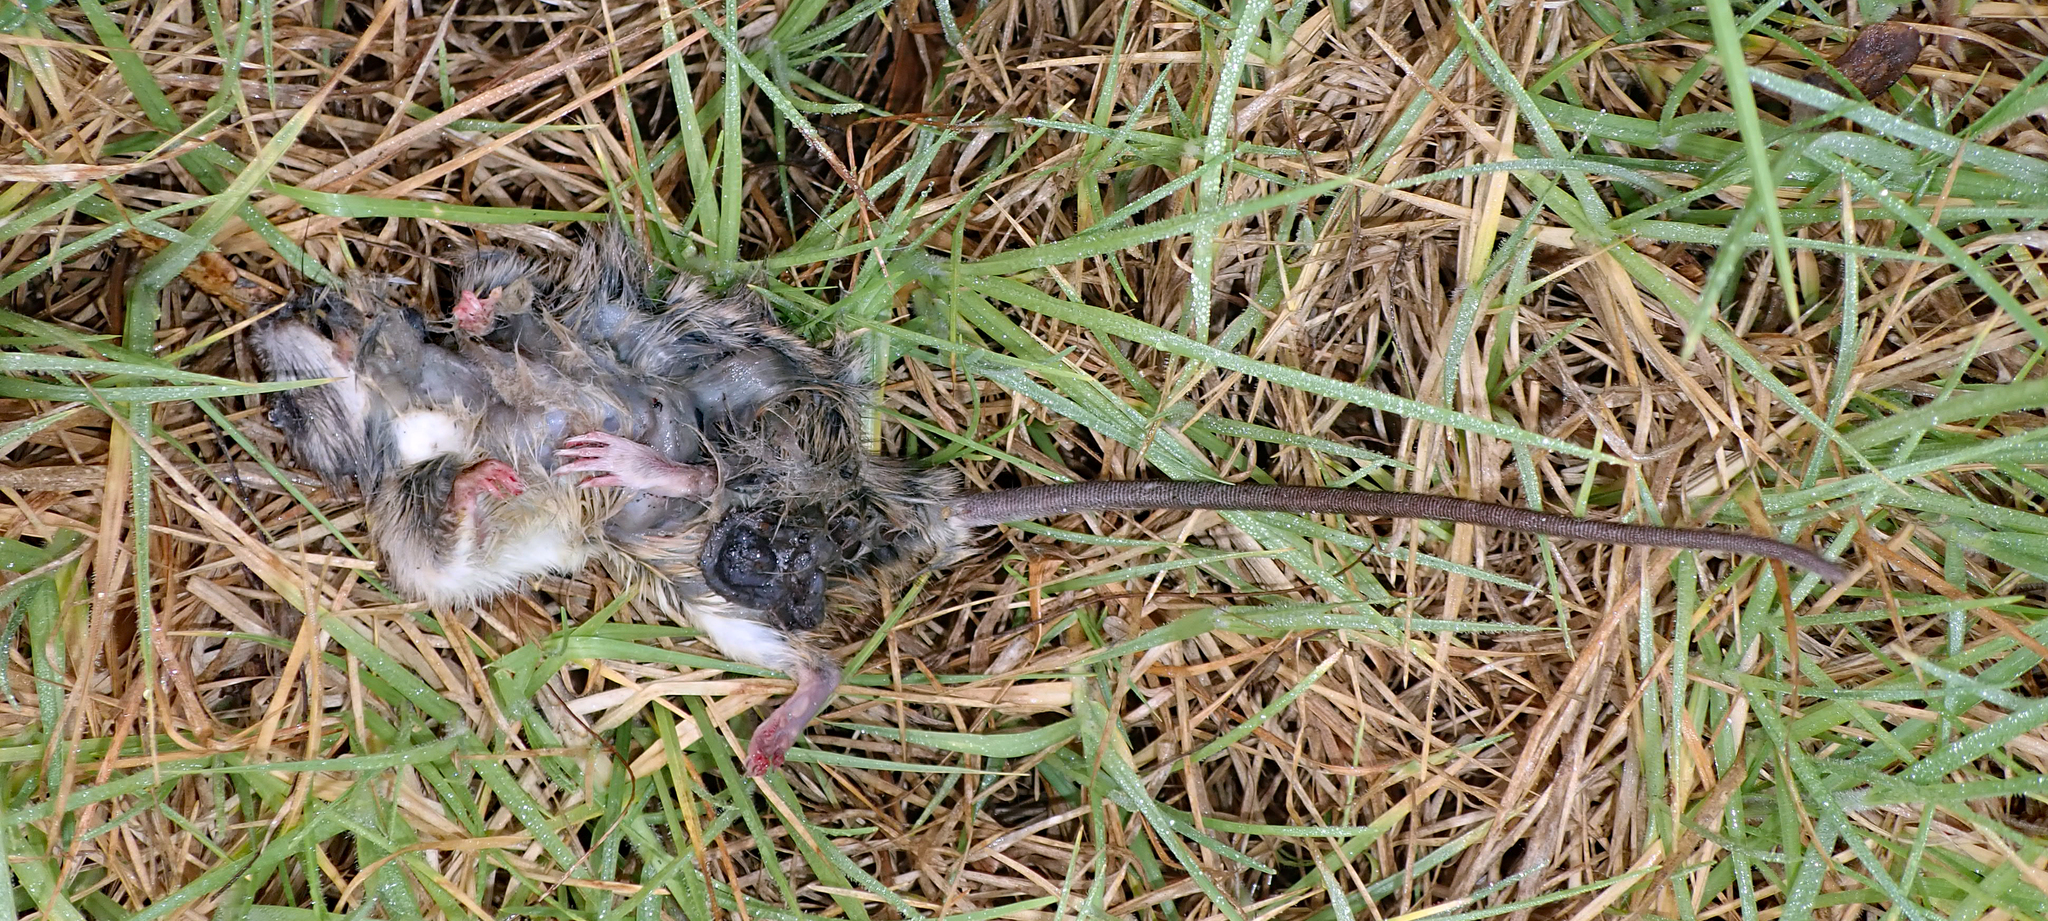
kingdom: Animalia
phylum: Chordata
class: Mammalia
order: Rodentia
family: Muridae
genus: Rattus
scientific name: Rattus rattus
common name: Black rat
